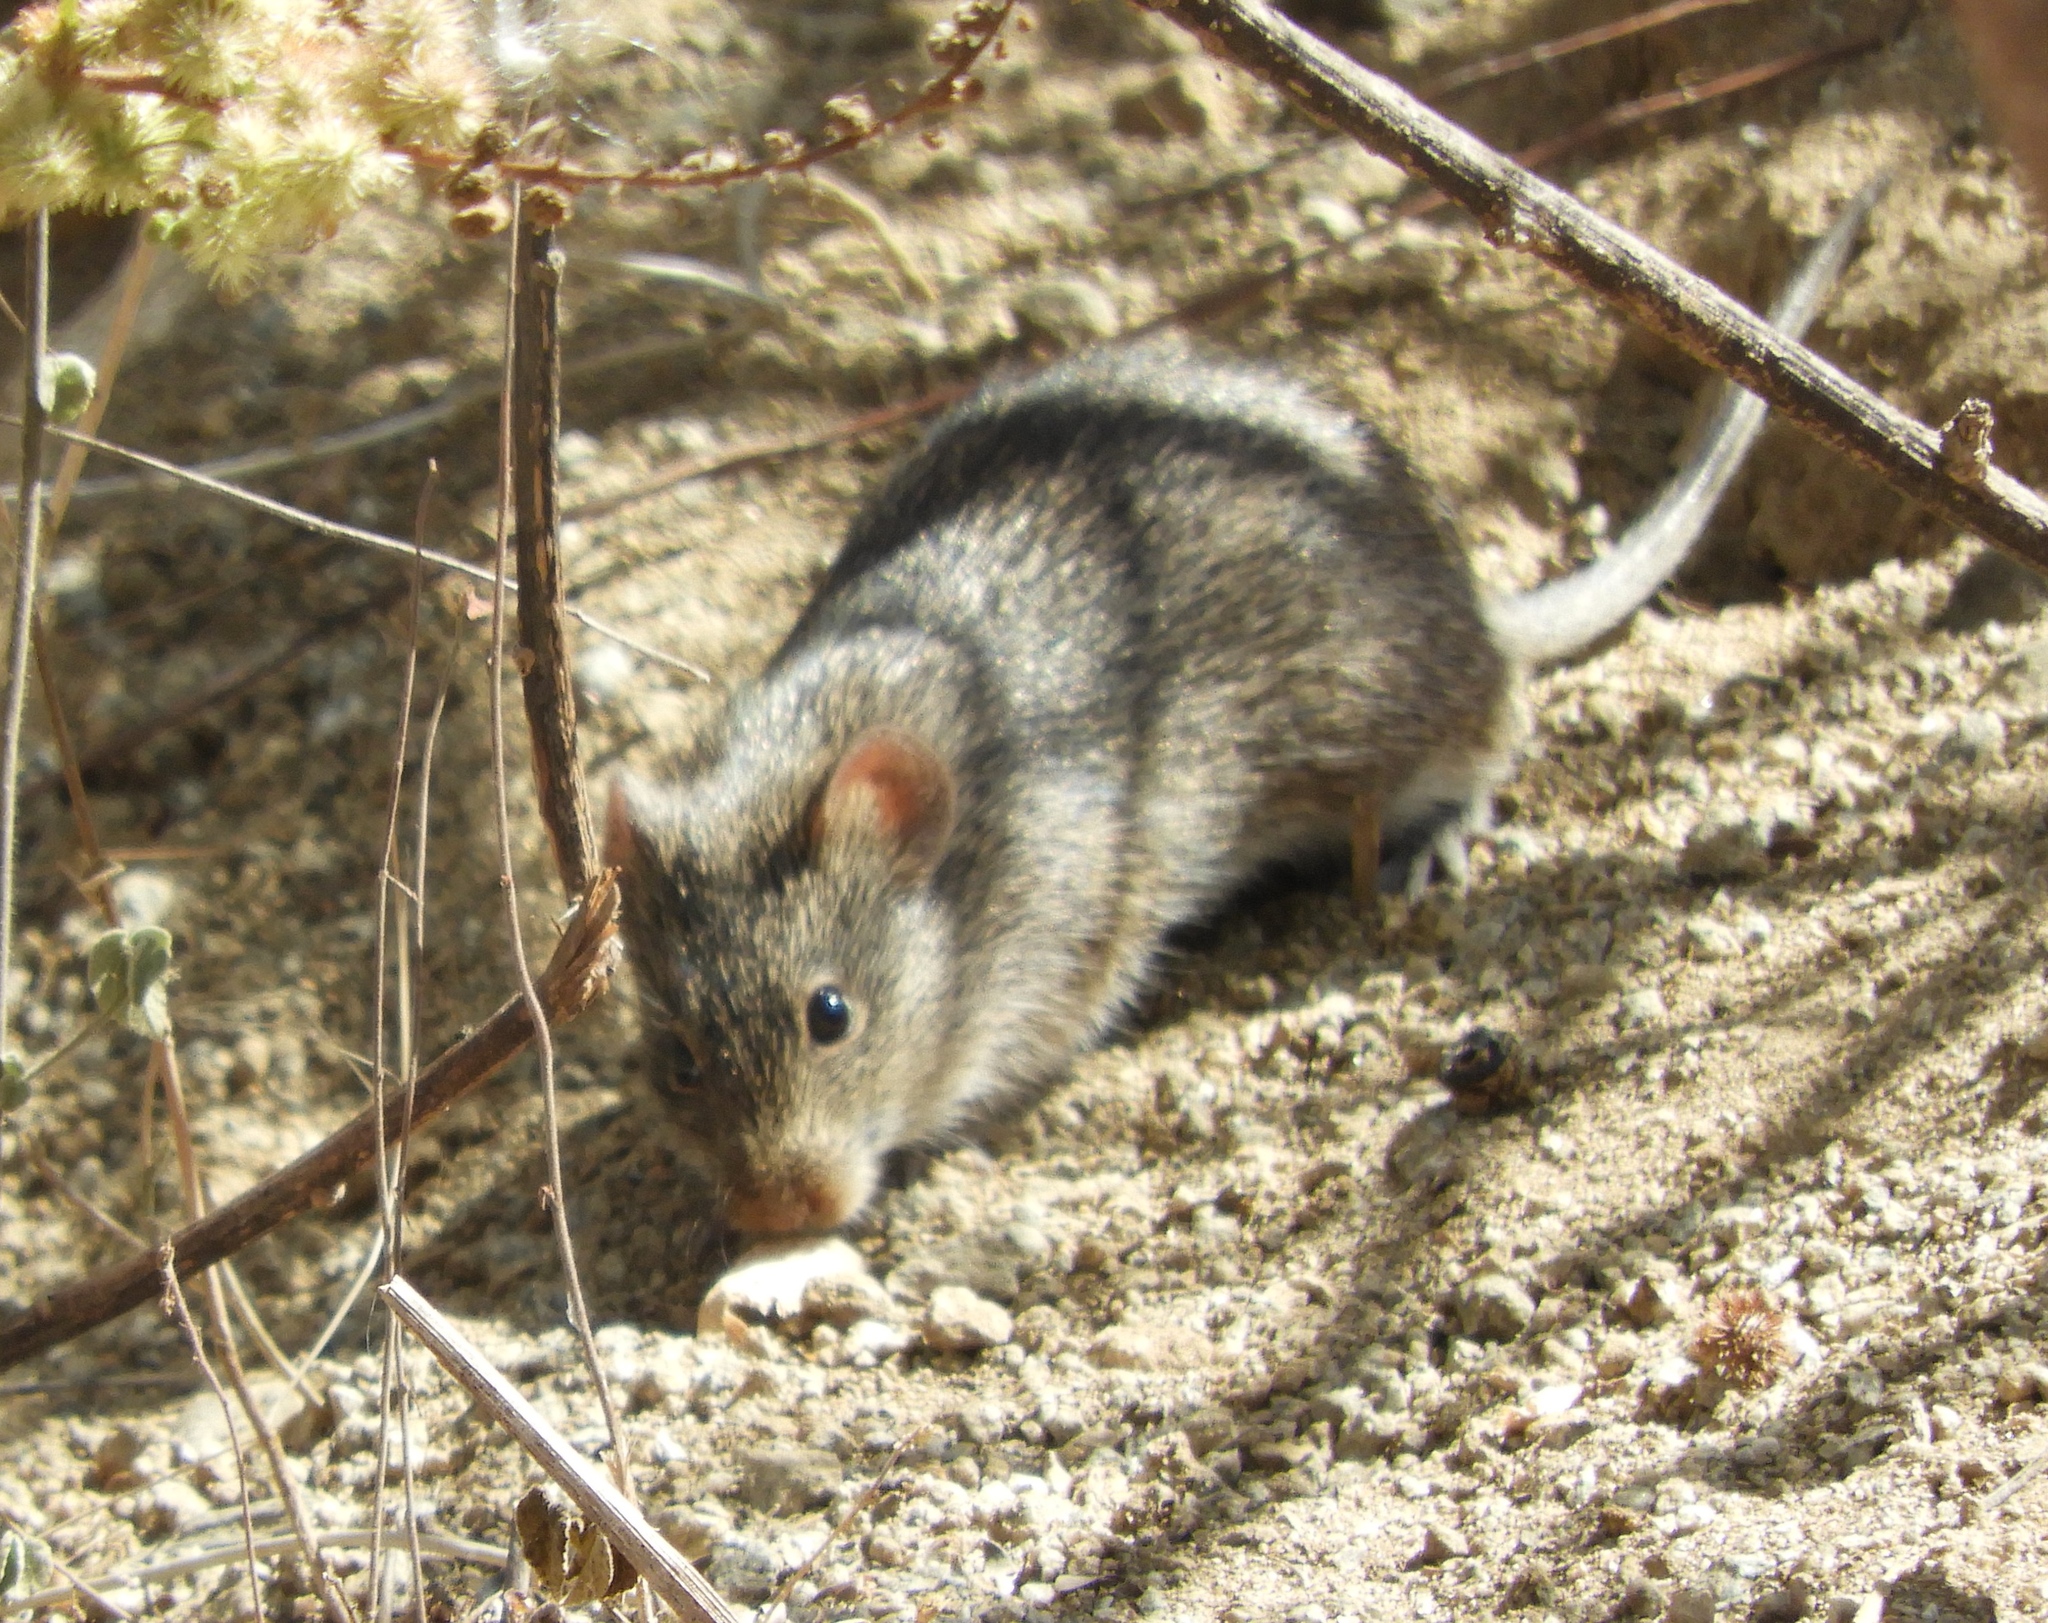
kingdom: Animalia
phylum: Chordata
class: Mammalia
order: Rodentia
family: Cricetidae
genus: Sigmodon
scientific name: Sigmodon arizonae
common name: Arizona cotton rat
